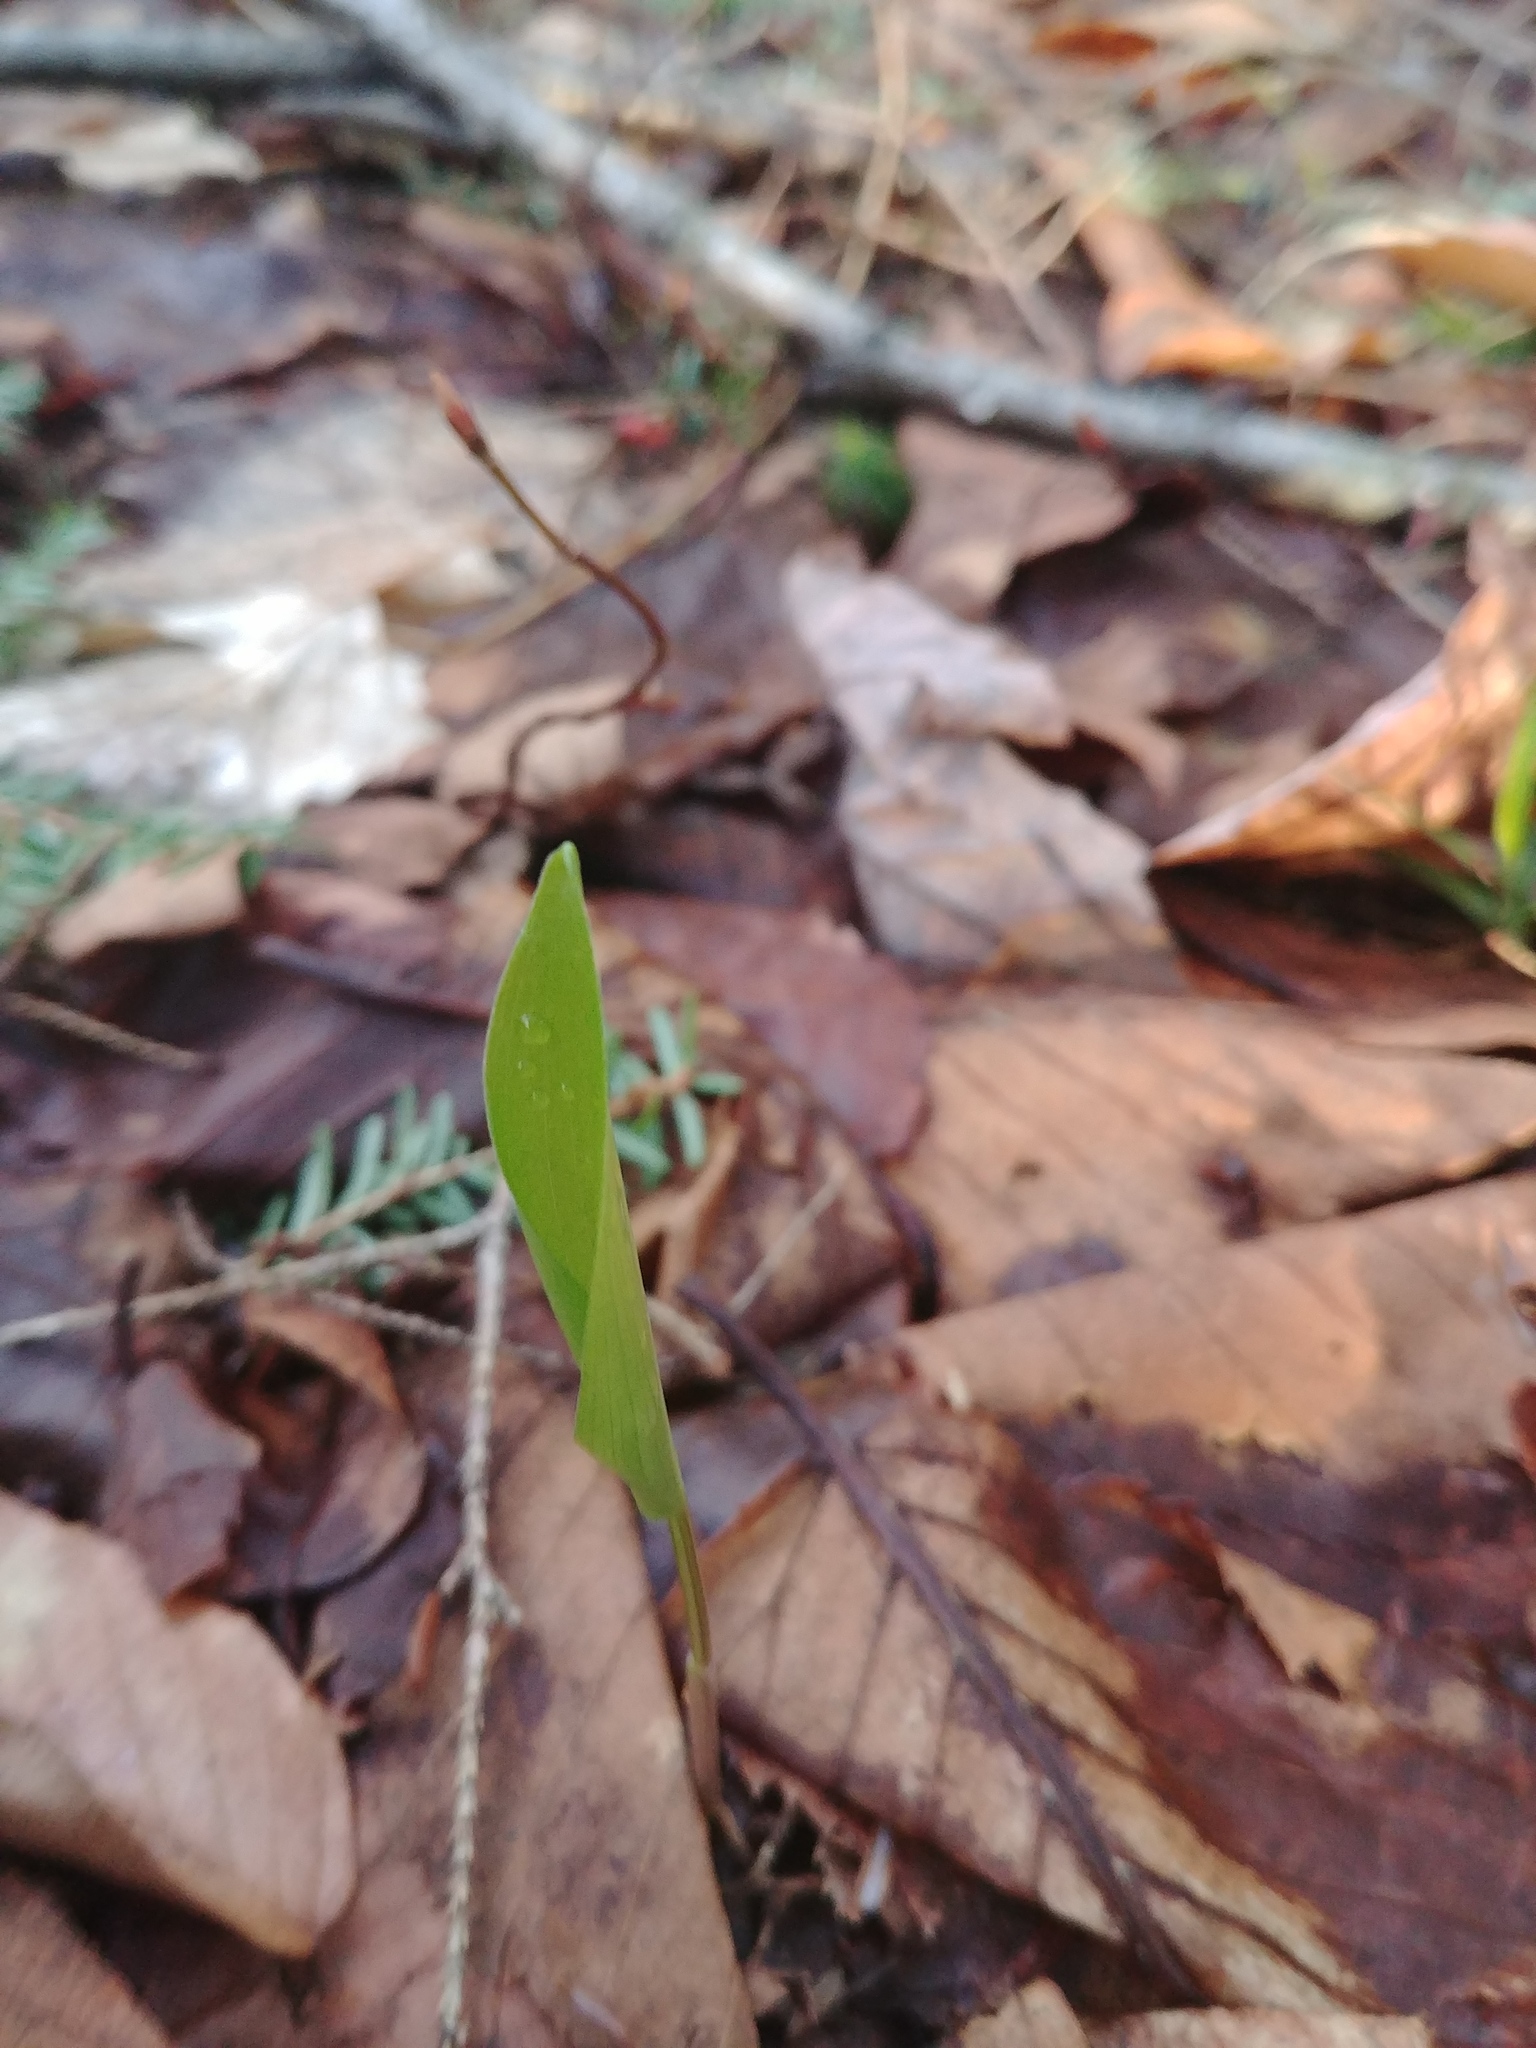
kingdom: Plantae
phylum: Tracheophyta
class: Liliopsida
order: Asparagales
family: Asparagaceae
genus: Maianthemum
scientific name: Maianthemum canadense
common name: False lily-of-the-valley
